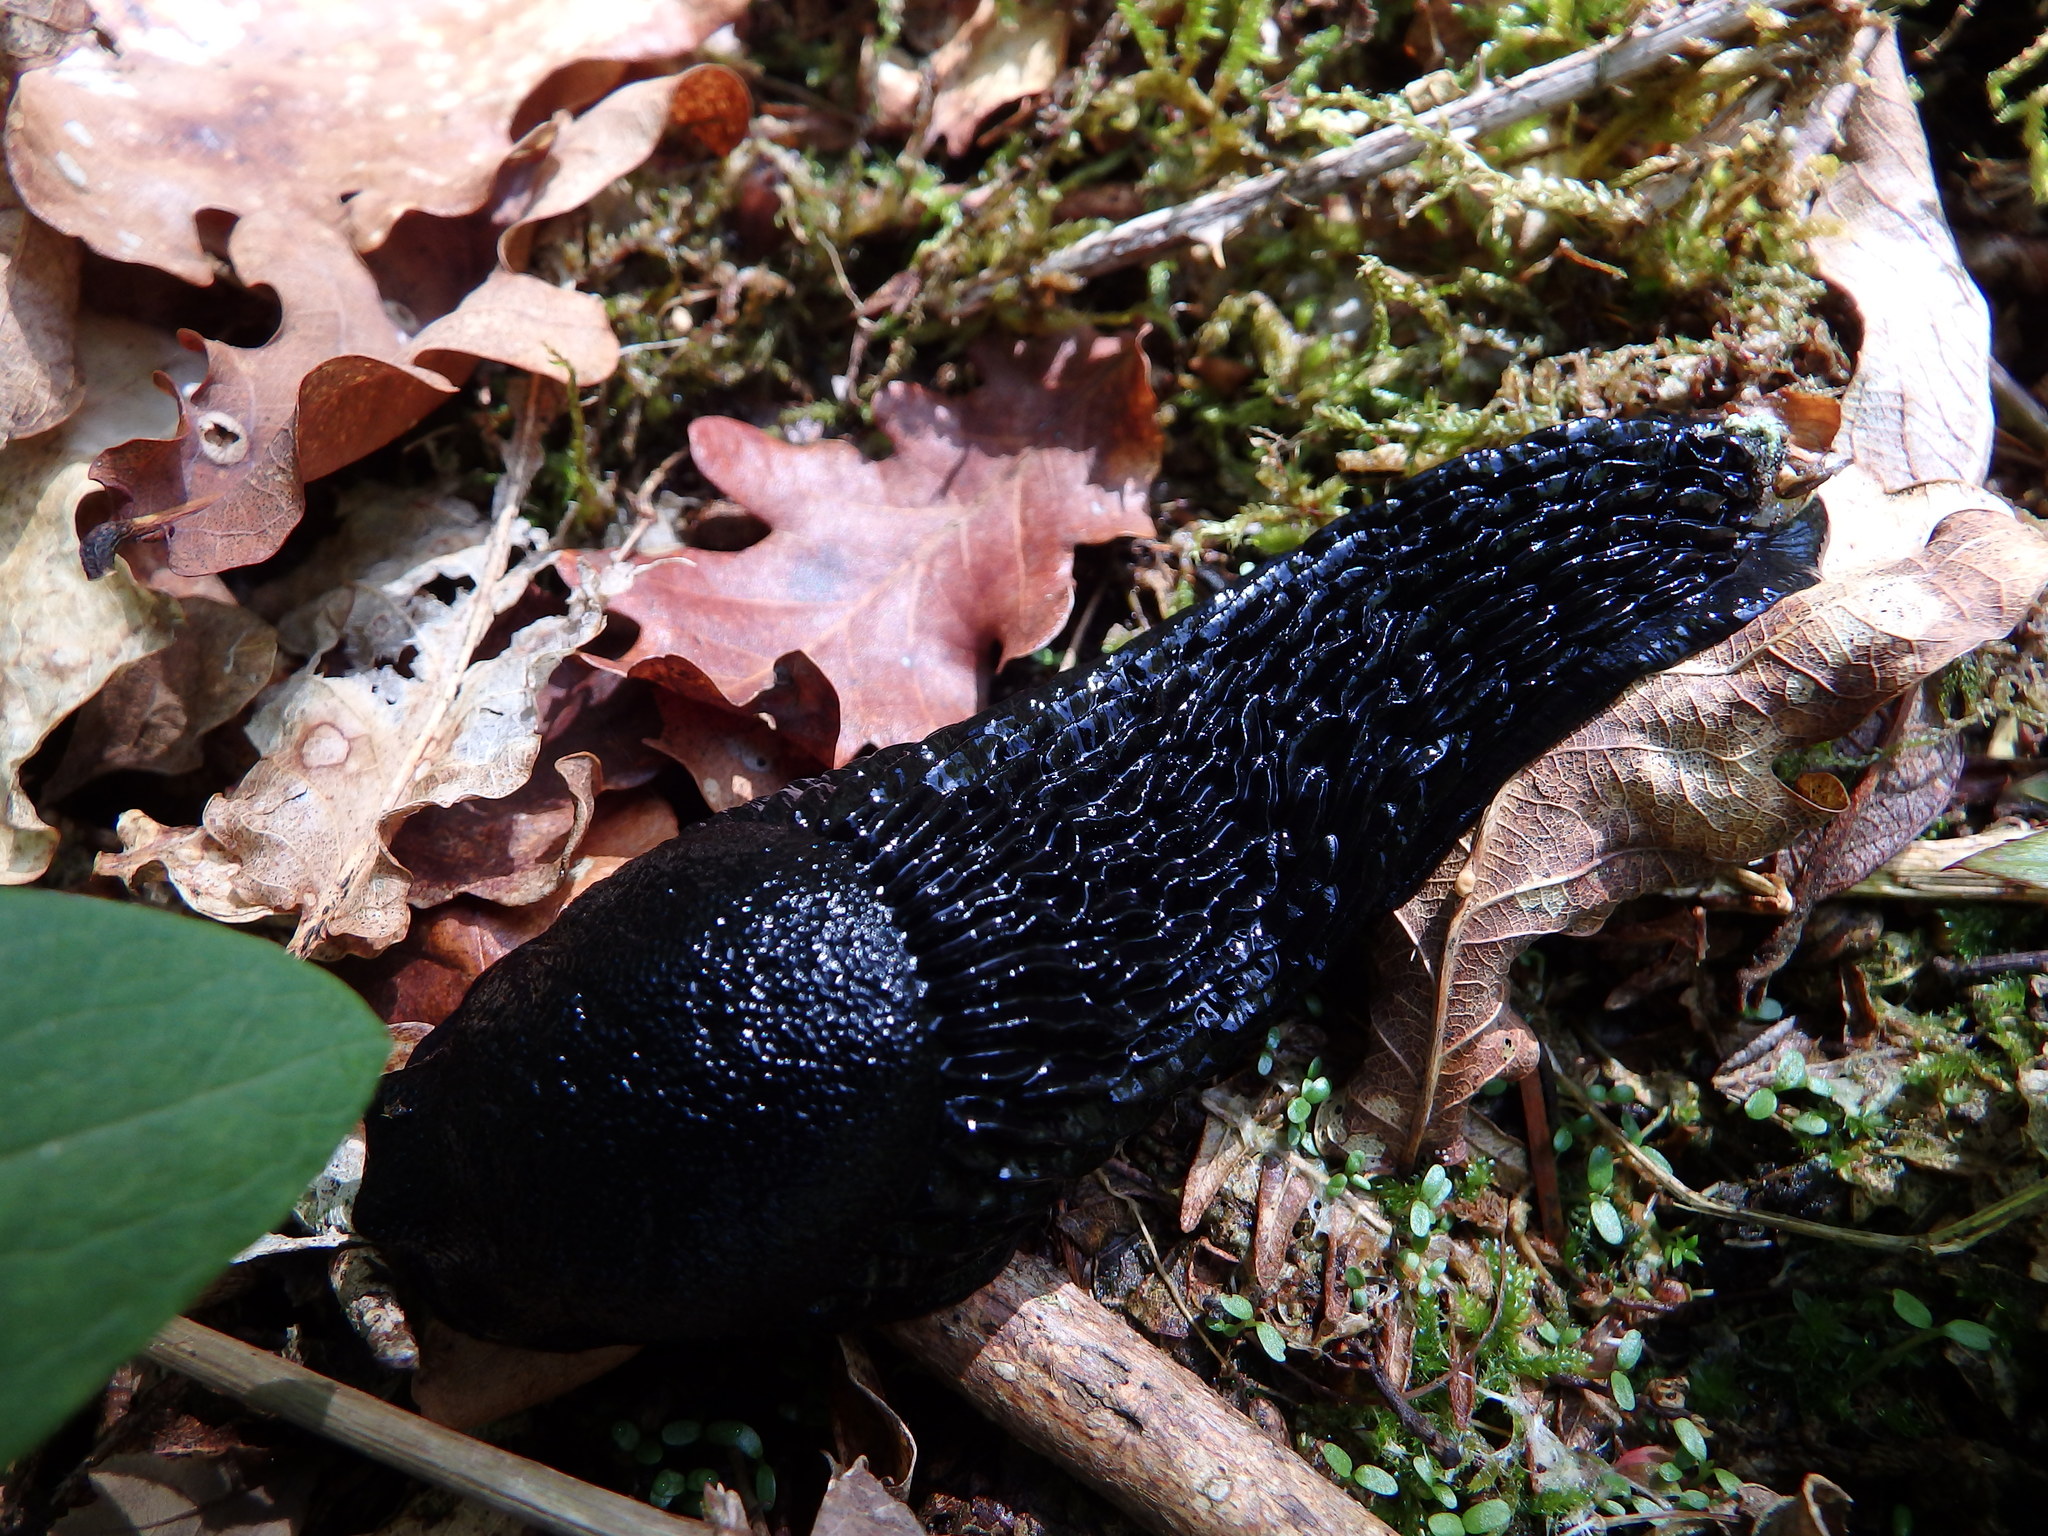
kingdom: Animalia
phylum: Mollusca
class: Gastropoda
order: Stylommatophora
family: Arionidae
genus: Arion
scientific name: Arion ater
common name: Black arion
